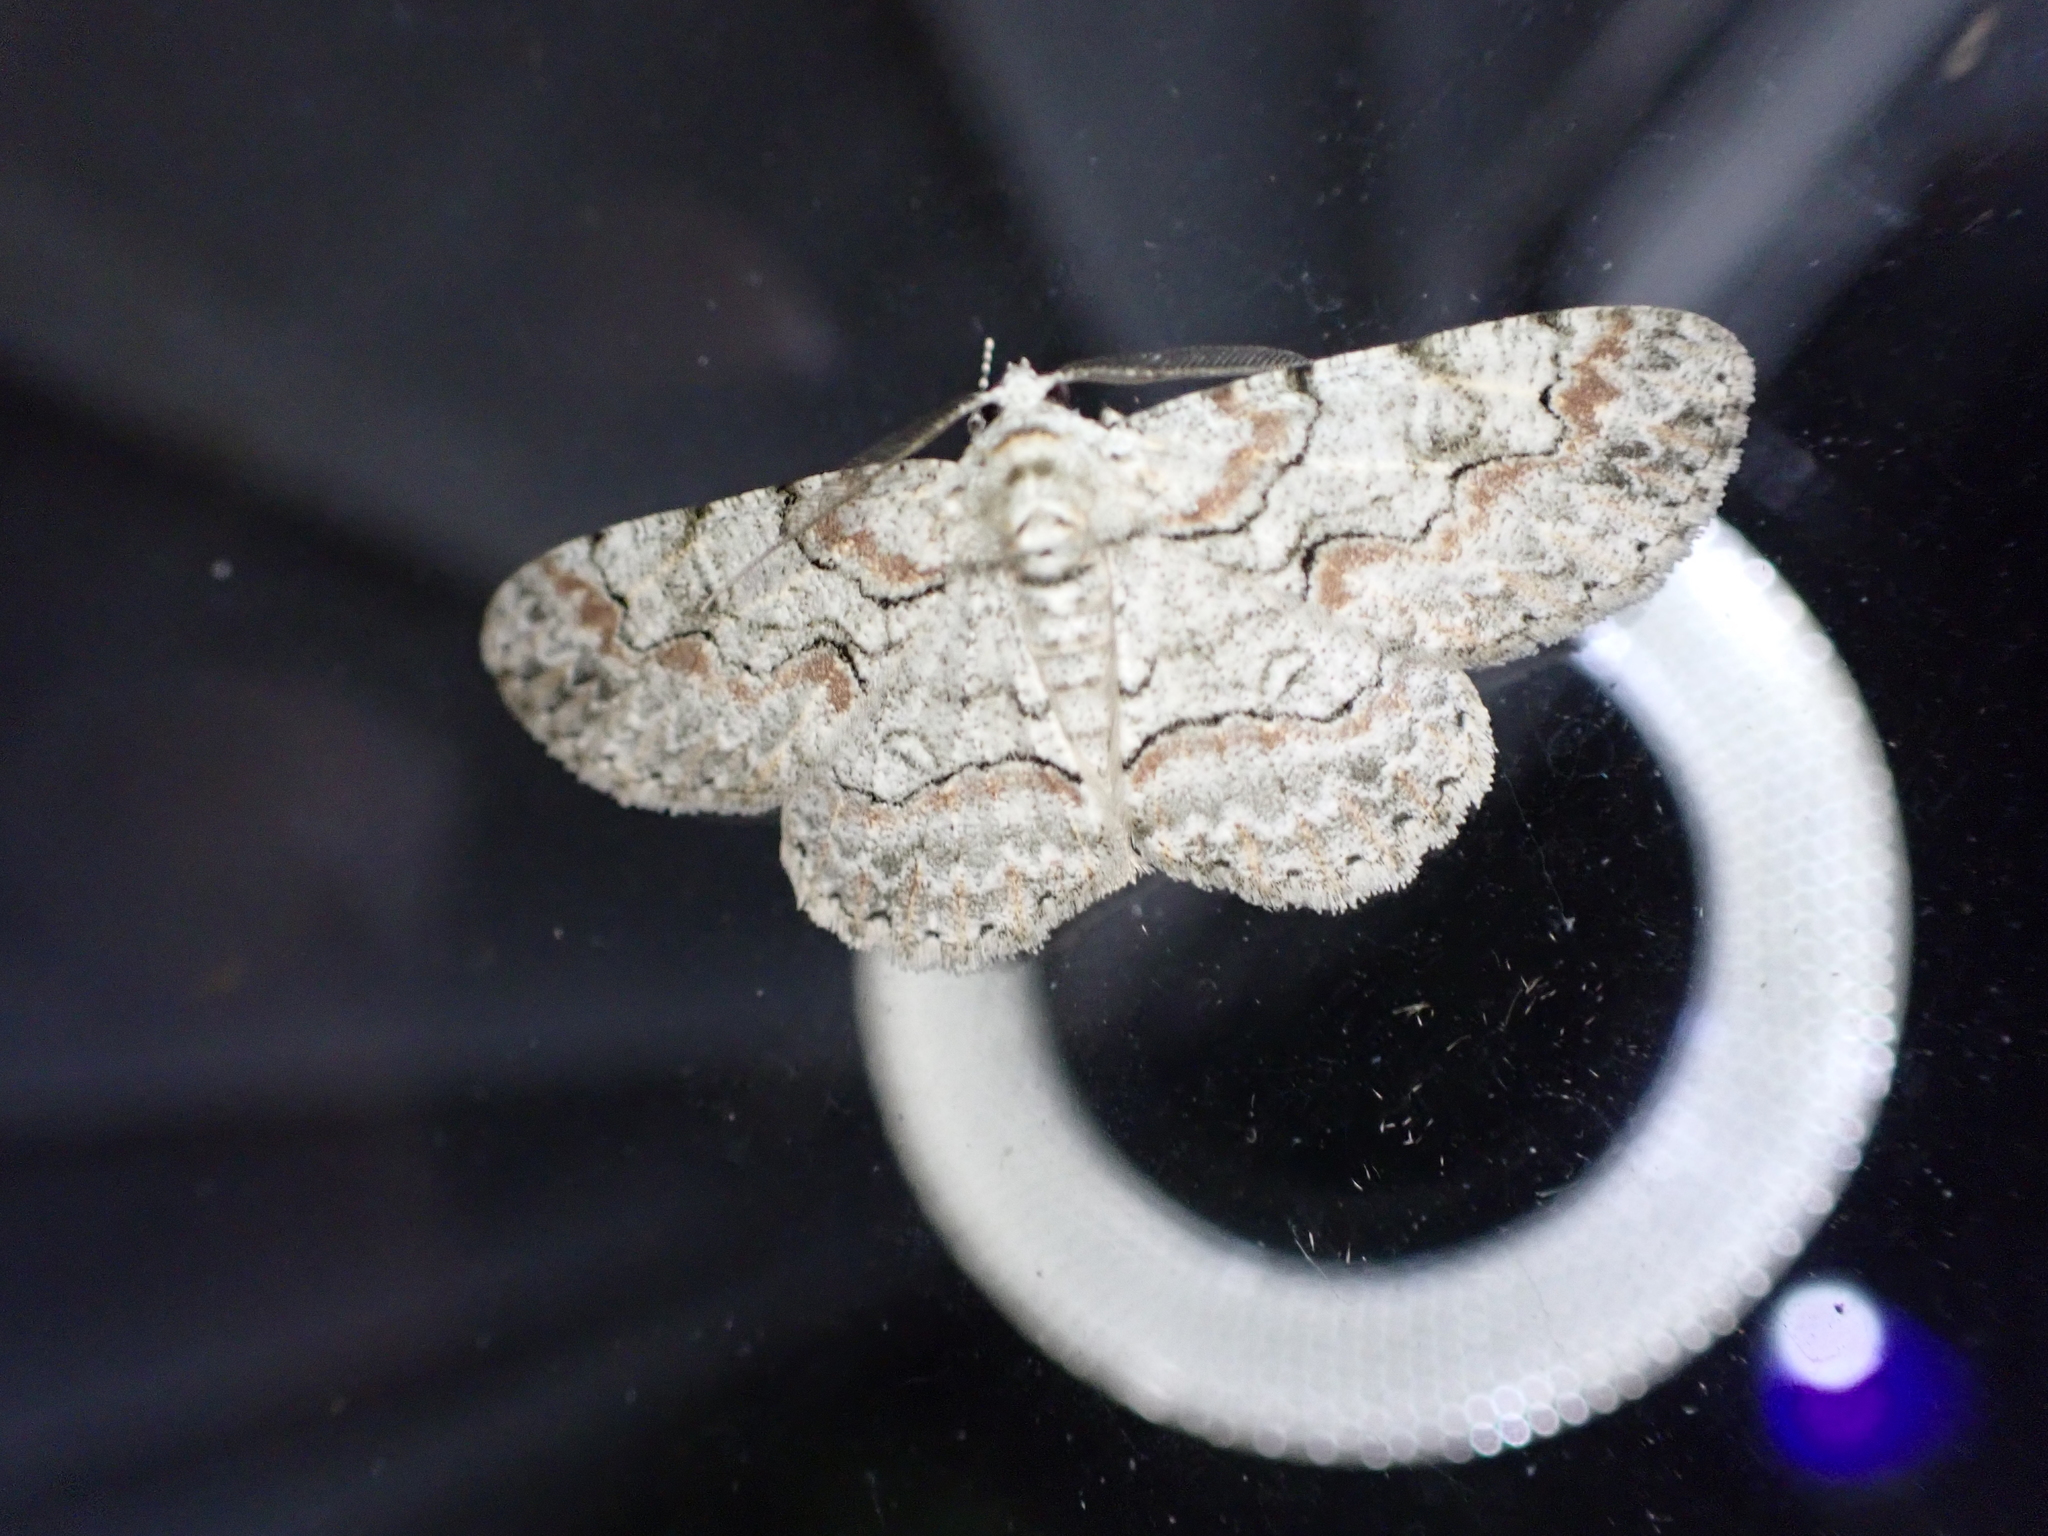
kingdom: Animalia
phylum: Arthropoda
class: Insecta
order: Lepidoptera
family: Geometridae
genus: Iridopsis
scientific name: Iridopsis defectaria
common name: Brown-shaded gray
